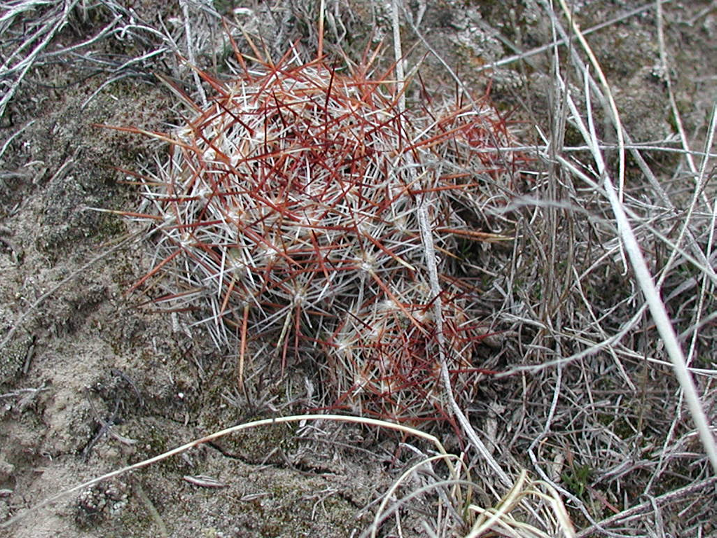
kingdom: Plantae
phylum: Tracheophyta
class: Magnoliopsida
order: Caryophyllales
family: Cactaceae
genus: Pelecyphora
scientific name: Pelecyphora vivipara
